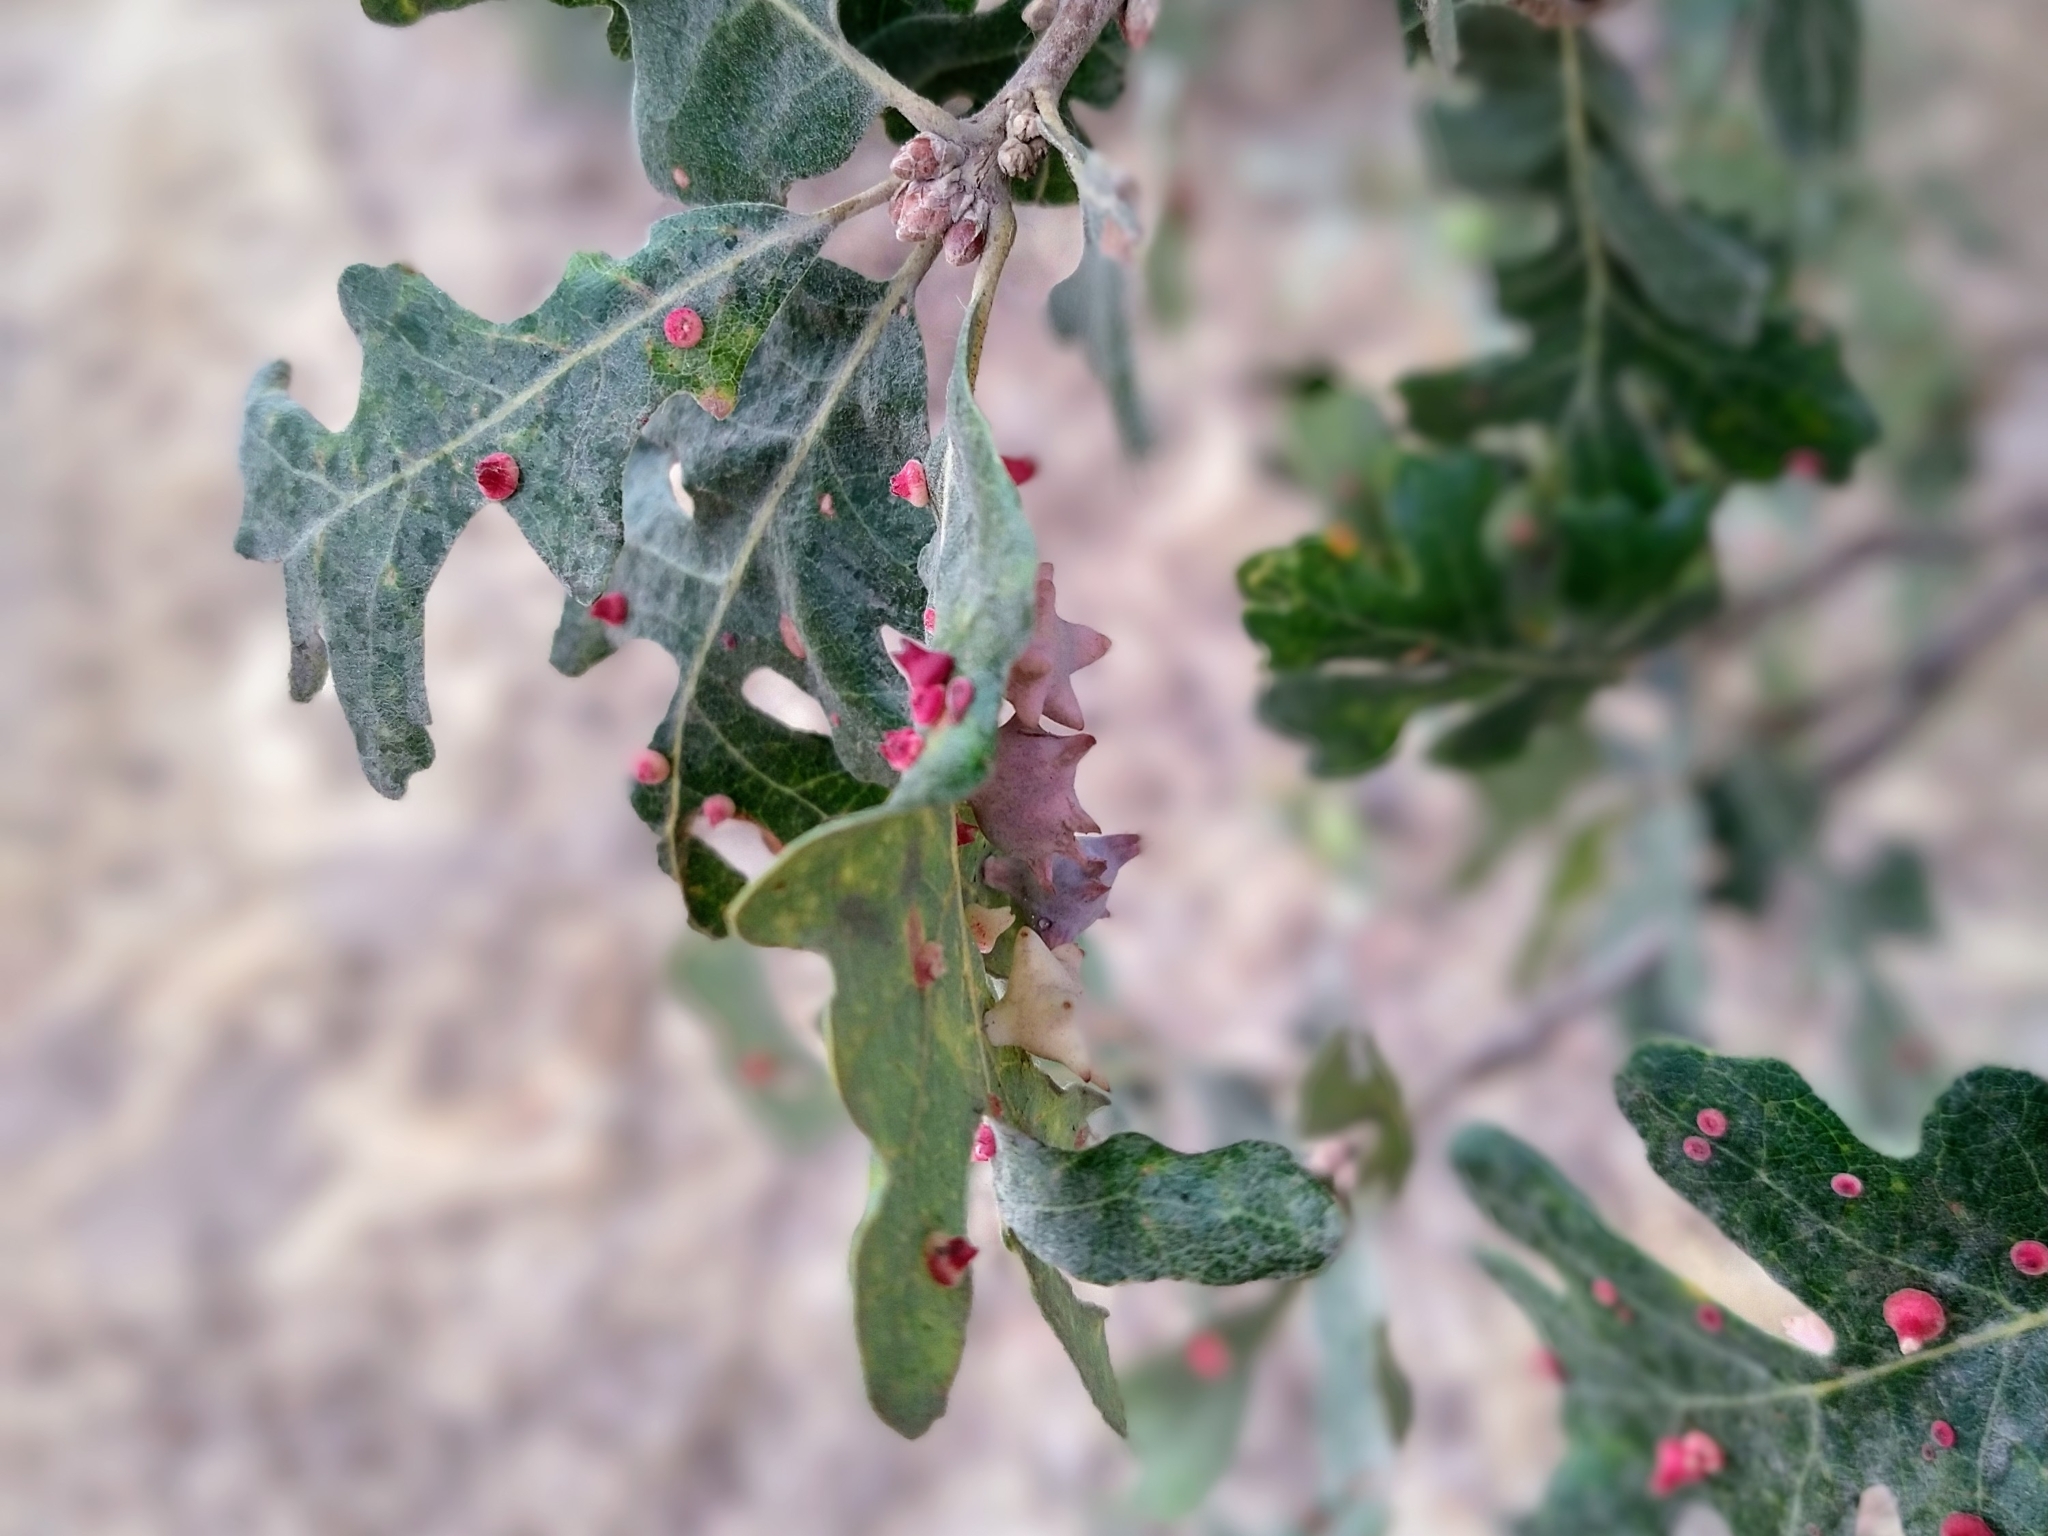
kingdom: Animalia
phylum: Arthropoda
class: Insecta
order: Hymenoptera
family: Cynipidae
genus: Cynips
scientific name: Cynips douglasi
